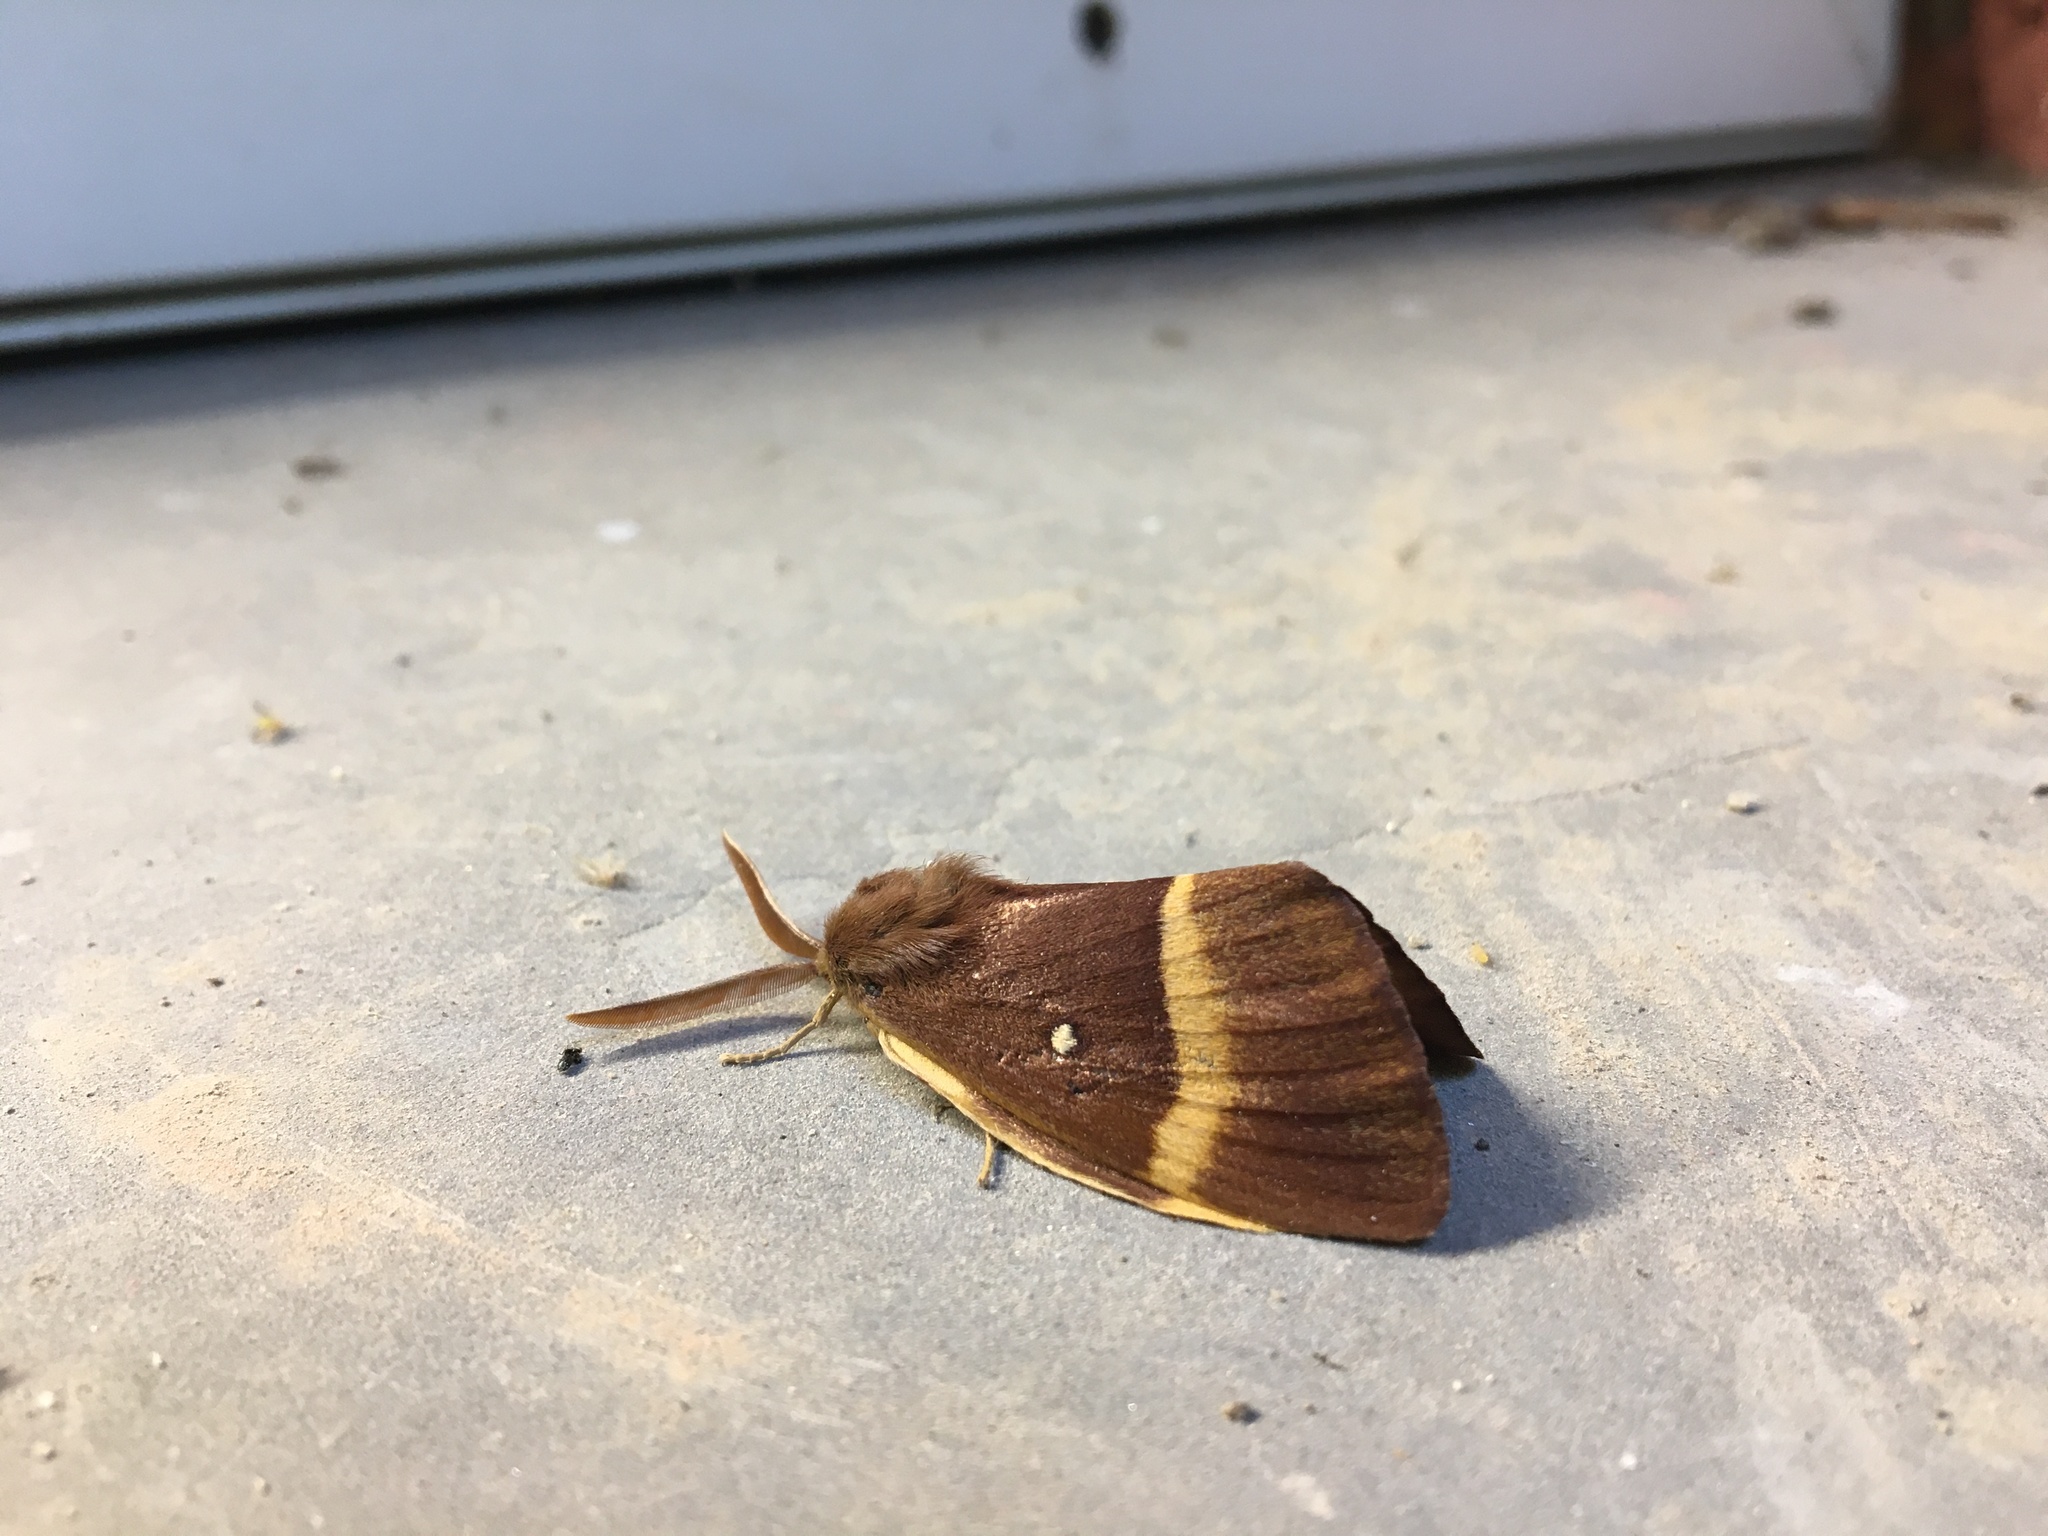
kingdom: Animalia
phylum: Arthropoda
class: Insecta
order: Lepidoptera
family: Lasiocampidae
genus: Lasiocampa
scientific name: Lasiocampa quercus
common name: Oak eggar
